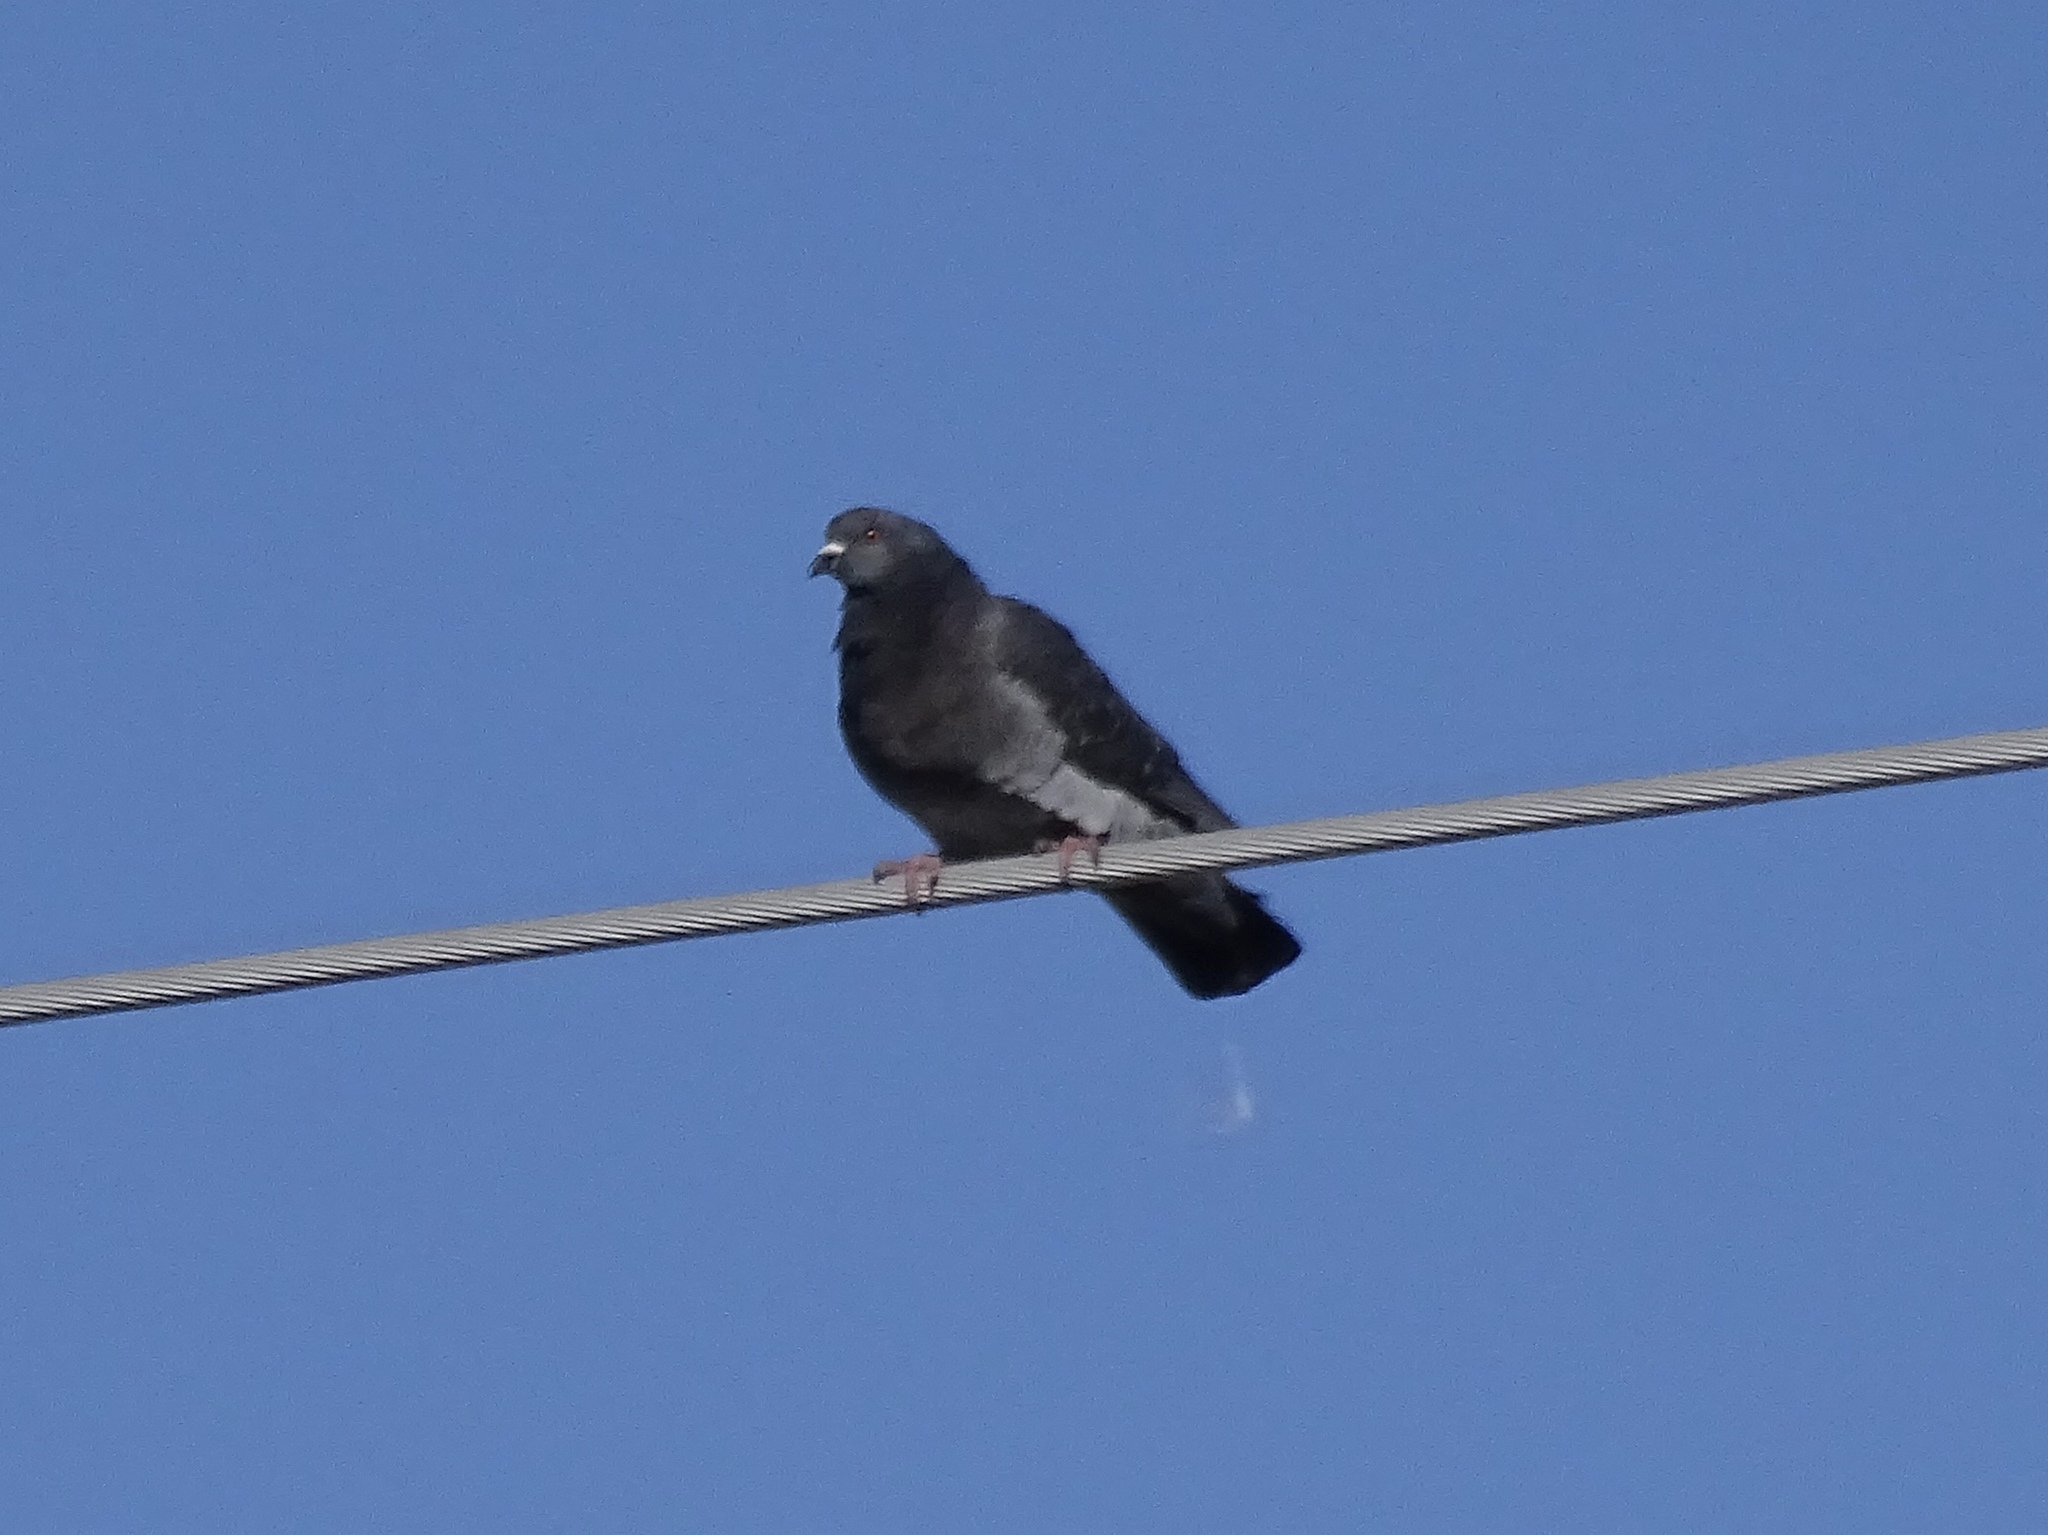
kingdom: Animalia
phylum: Chordata
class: Aves
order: Columbiformes
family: Columbidae
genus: Columba
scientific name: Columba livia
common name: Rock pigeon
